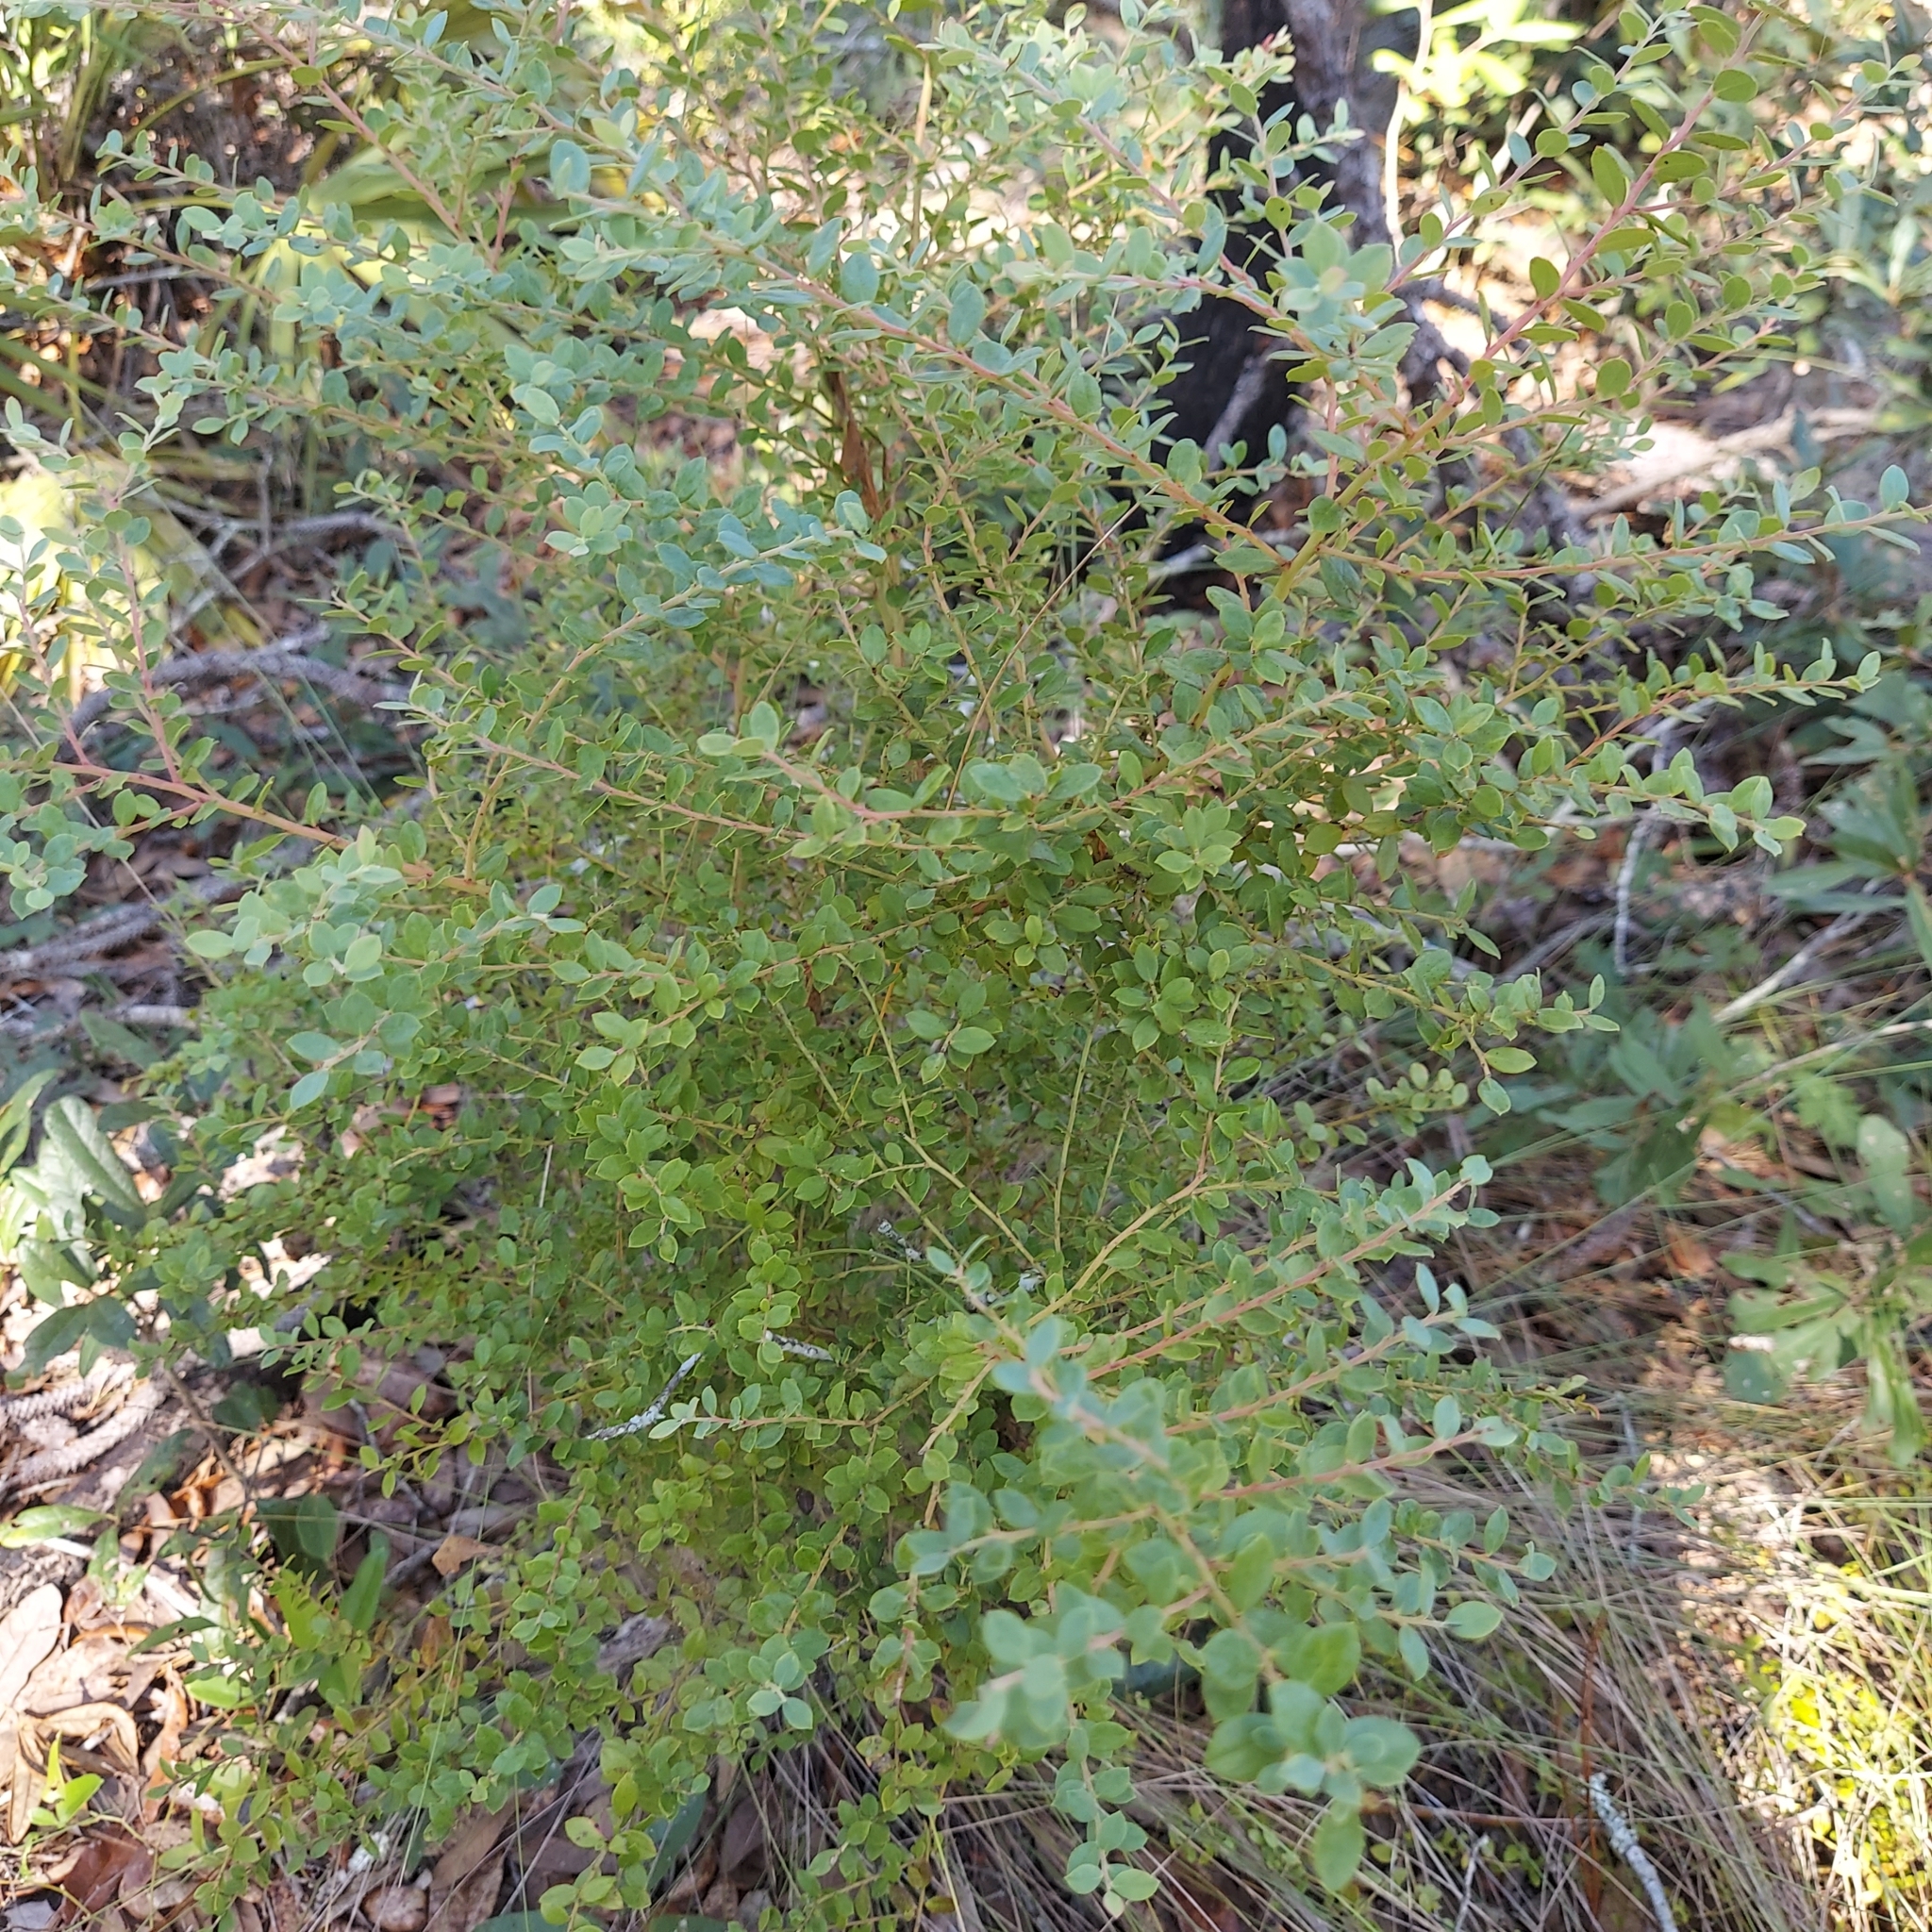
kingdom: Plantae
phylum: Tracheophyta
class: Magnoliopsida
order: Ericales
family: Ericaceae
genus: Vaccinium
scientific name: Vaccinium darrowii
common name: Darrow's blueberry
